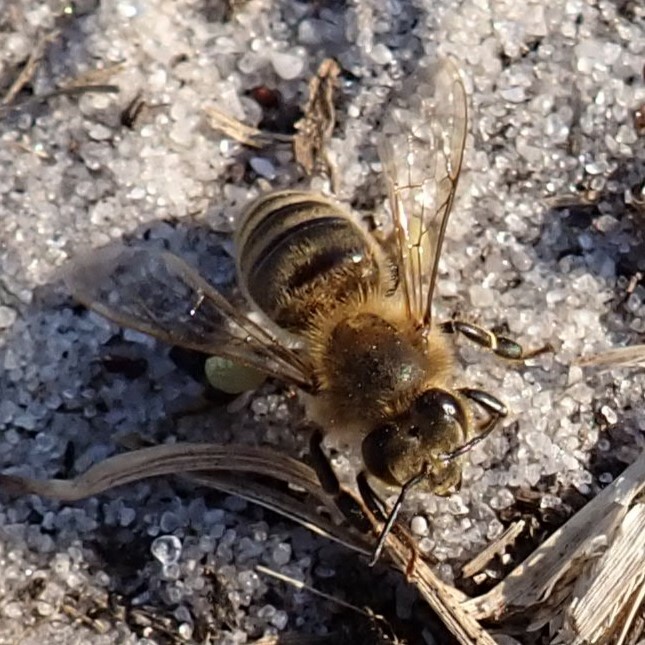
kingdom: Animalia
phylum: Arthropoda
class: Insecta
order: Hymenoptera
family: Apidae
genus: Apis
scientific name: Apis mellifera
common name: Honey bee
